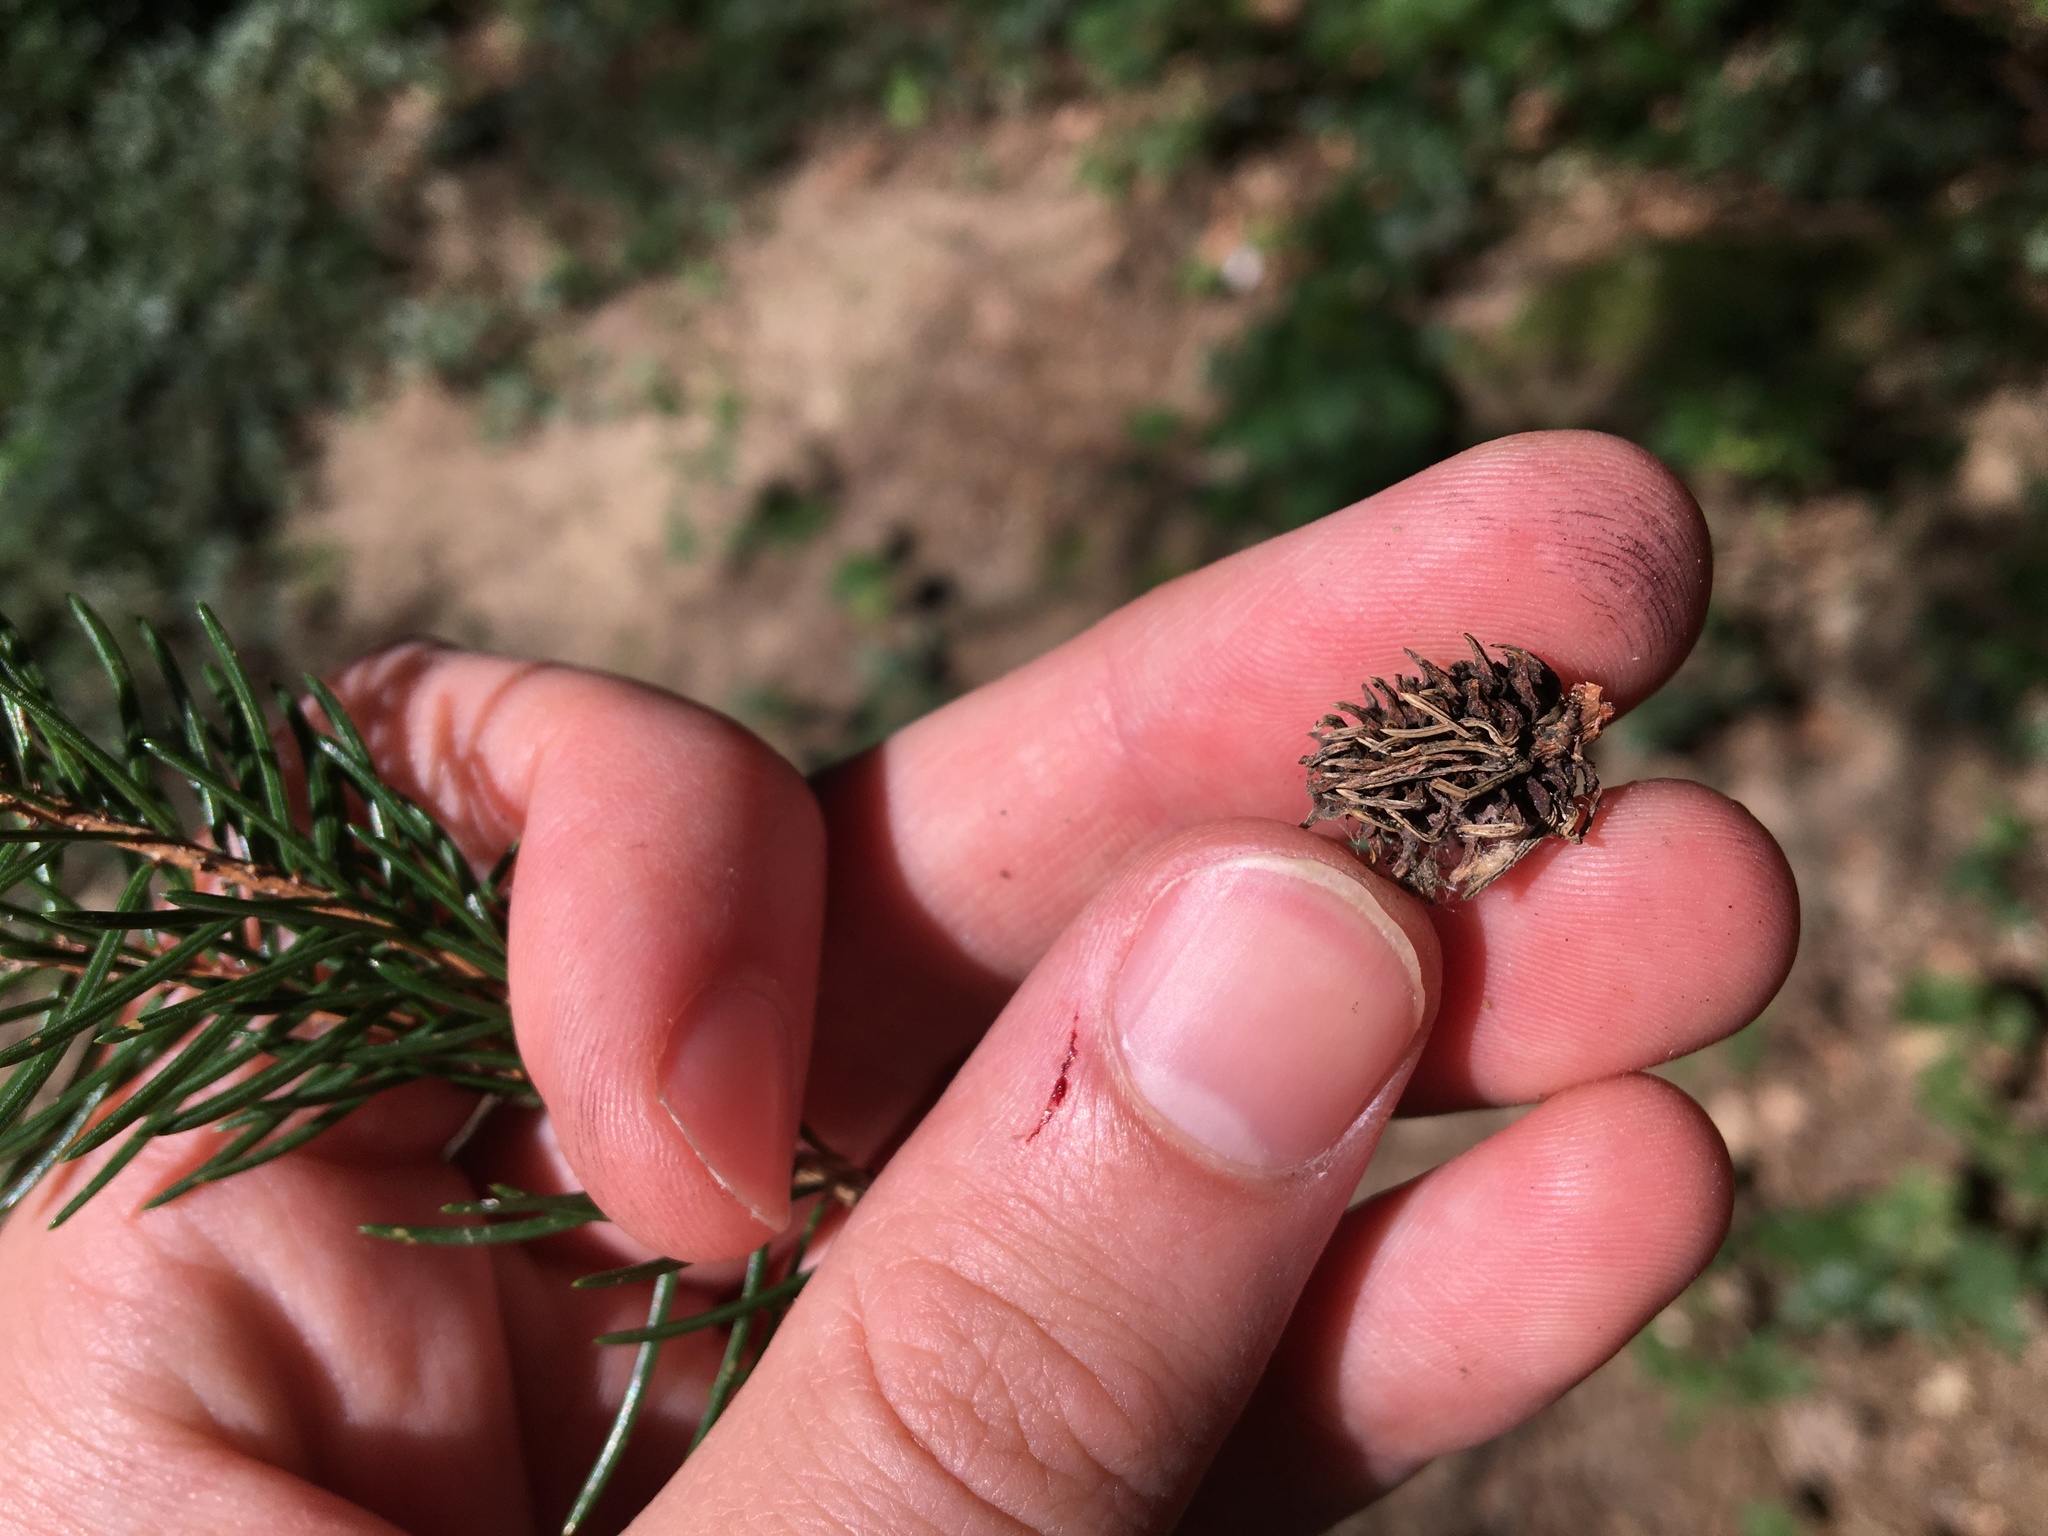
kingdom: Plantae
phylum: Tracheophyta
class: Pinopsida
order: Pinales
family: Pinaceae
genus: Picea
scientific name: Picea abies
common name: Norway spruce
